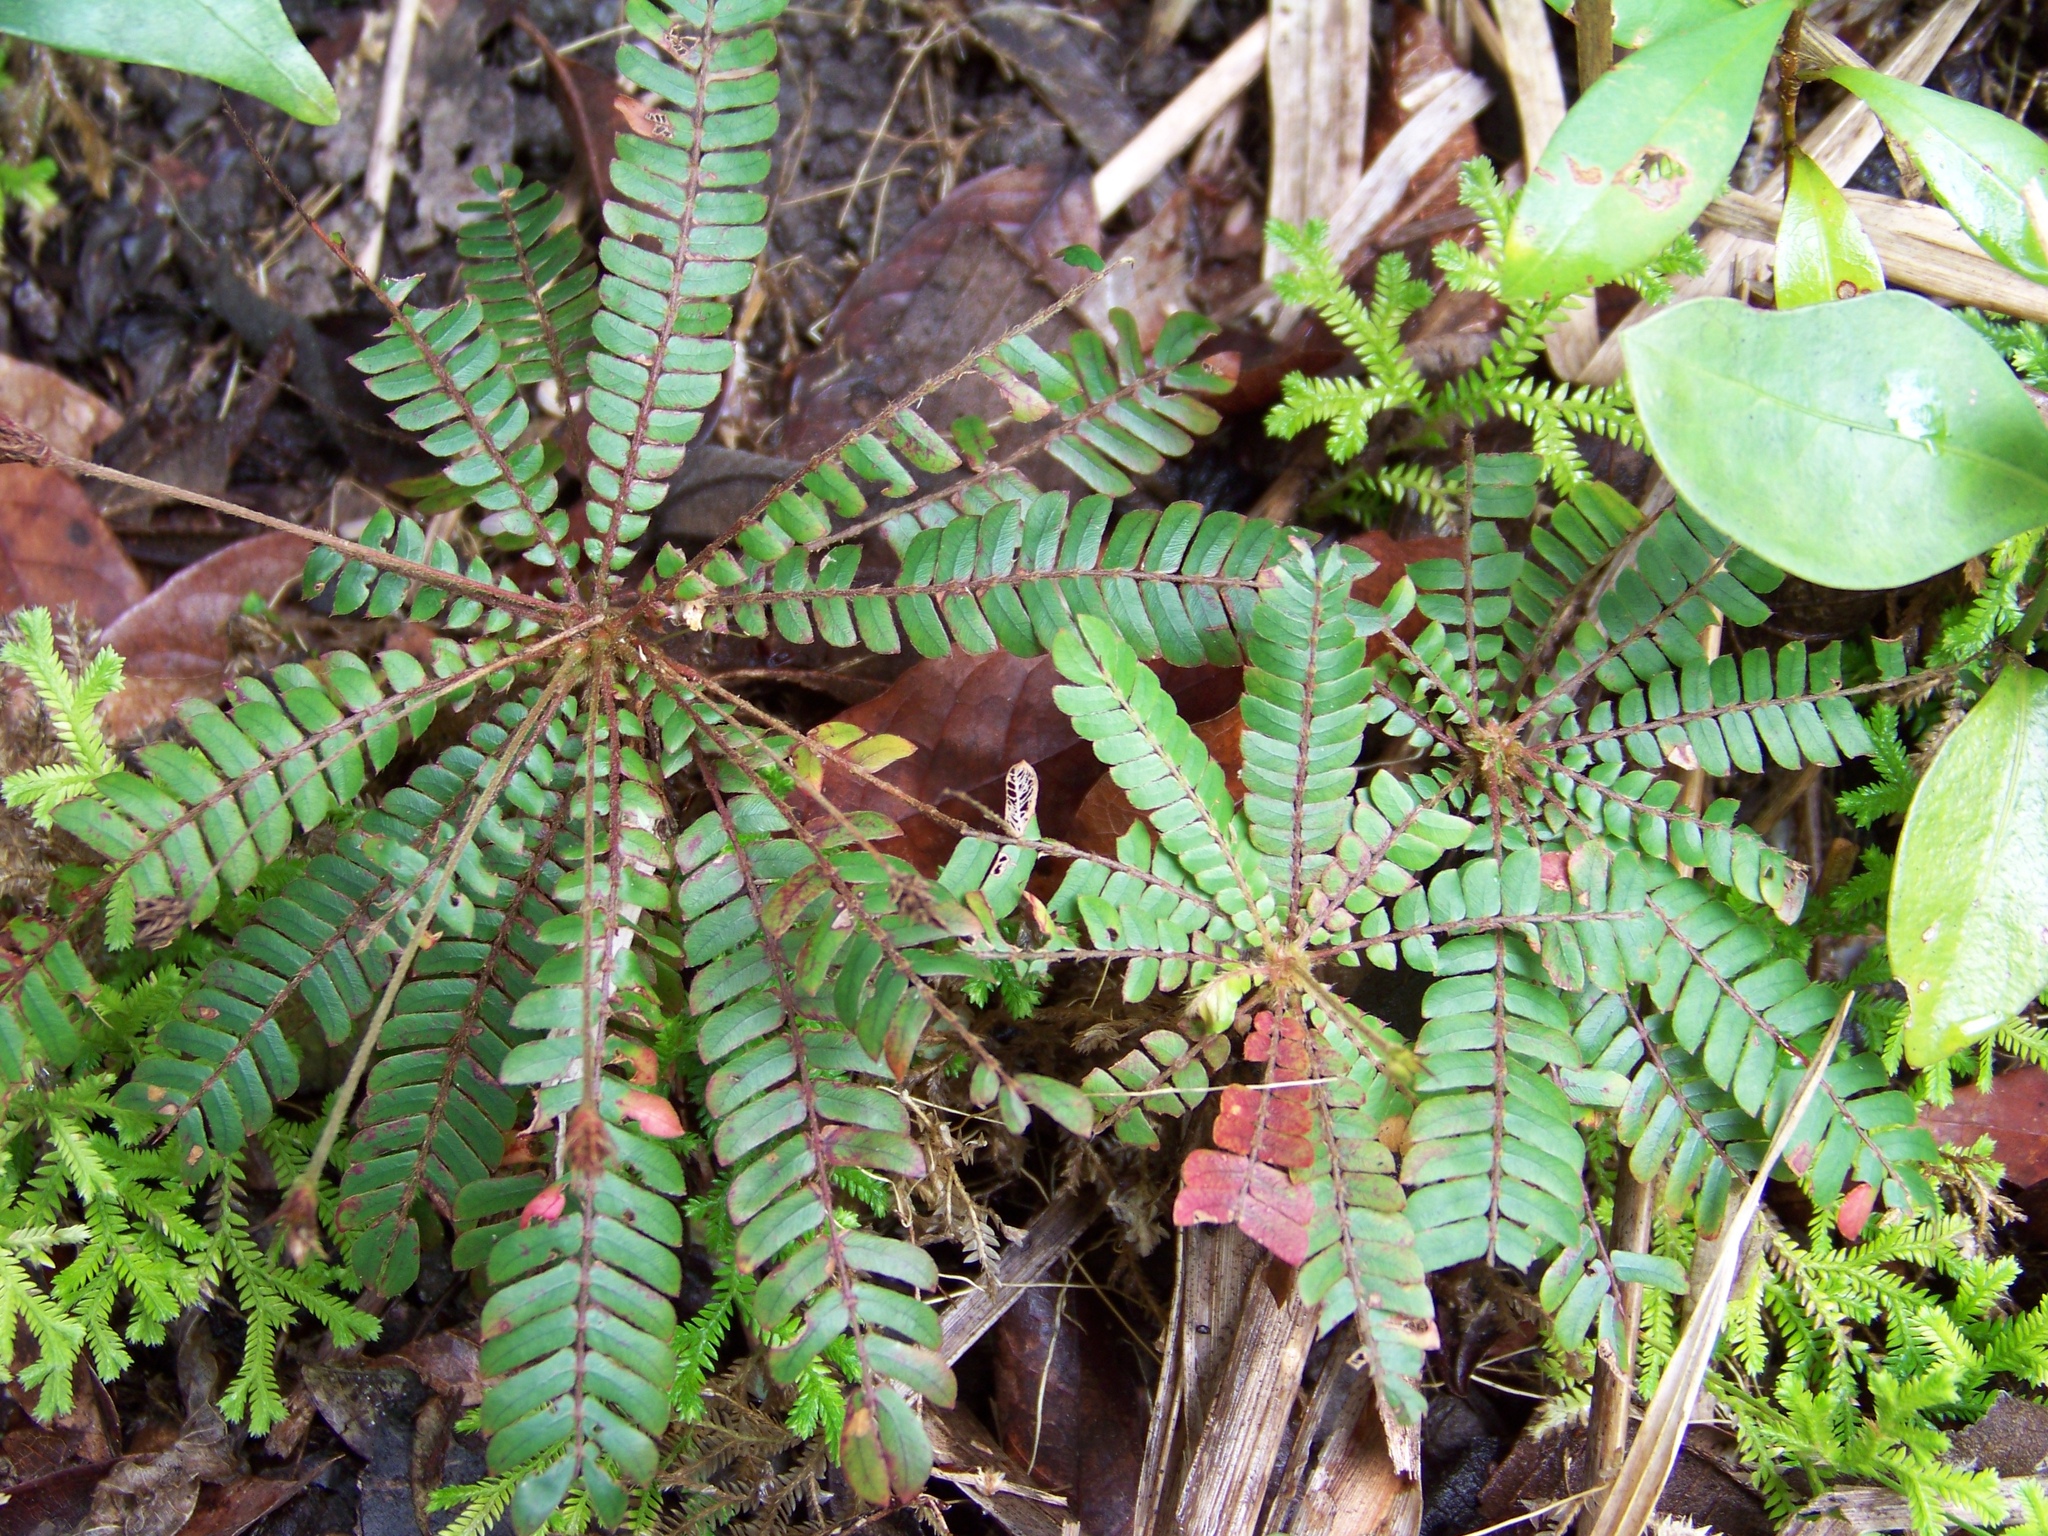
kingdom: Plantae
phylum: Tracheophyta
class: Magnoliopsida
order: Oxalidales
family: Oxalidaceae
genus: Biophytum
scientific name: Biophytum dendroides
